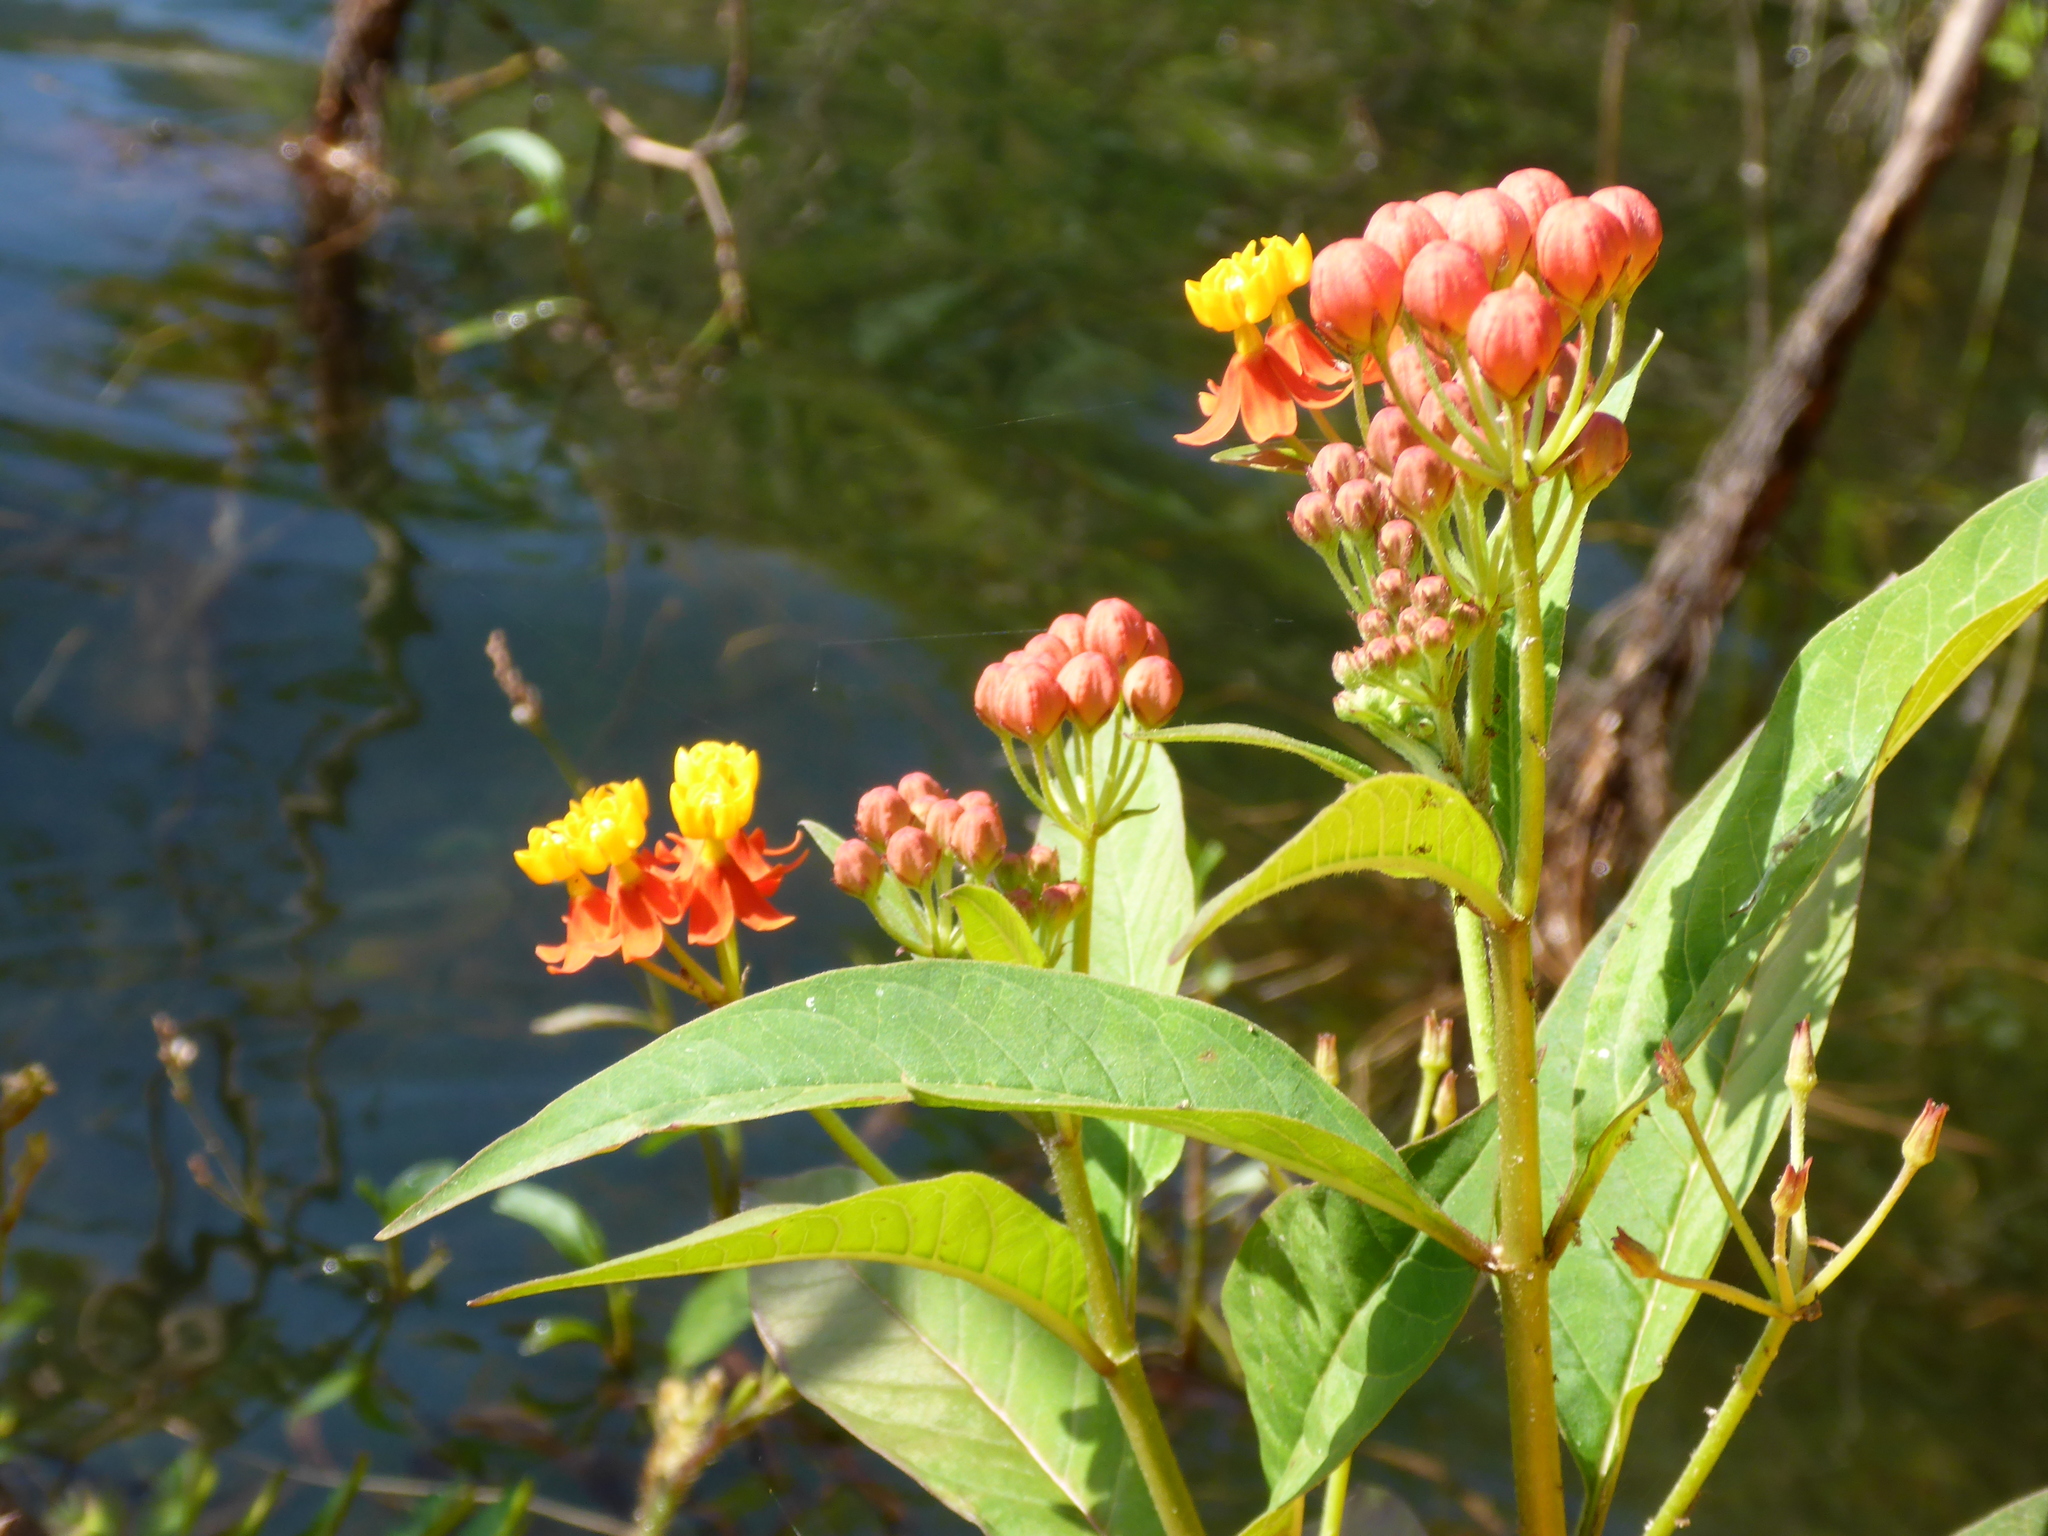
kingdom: Plantae
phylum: Tracheophyta
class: Magnoliopsida
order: Gentianales
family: Apocynaceae
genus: Asclepias
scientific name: Asclepias curassavica
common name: Bloodflower
